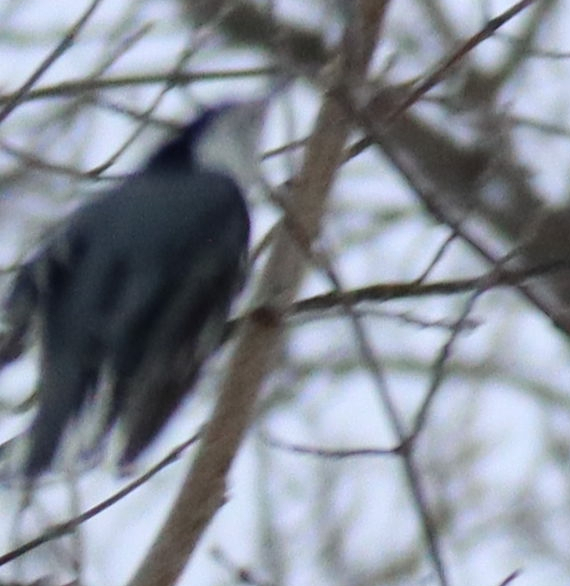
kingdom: Animalia
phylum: Chordata
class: Aves
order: Passeriformes
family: Sittidae
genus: Sitta
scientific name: Sitta carolinensis
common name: White-breasted nuthatch
